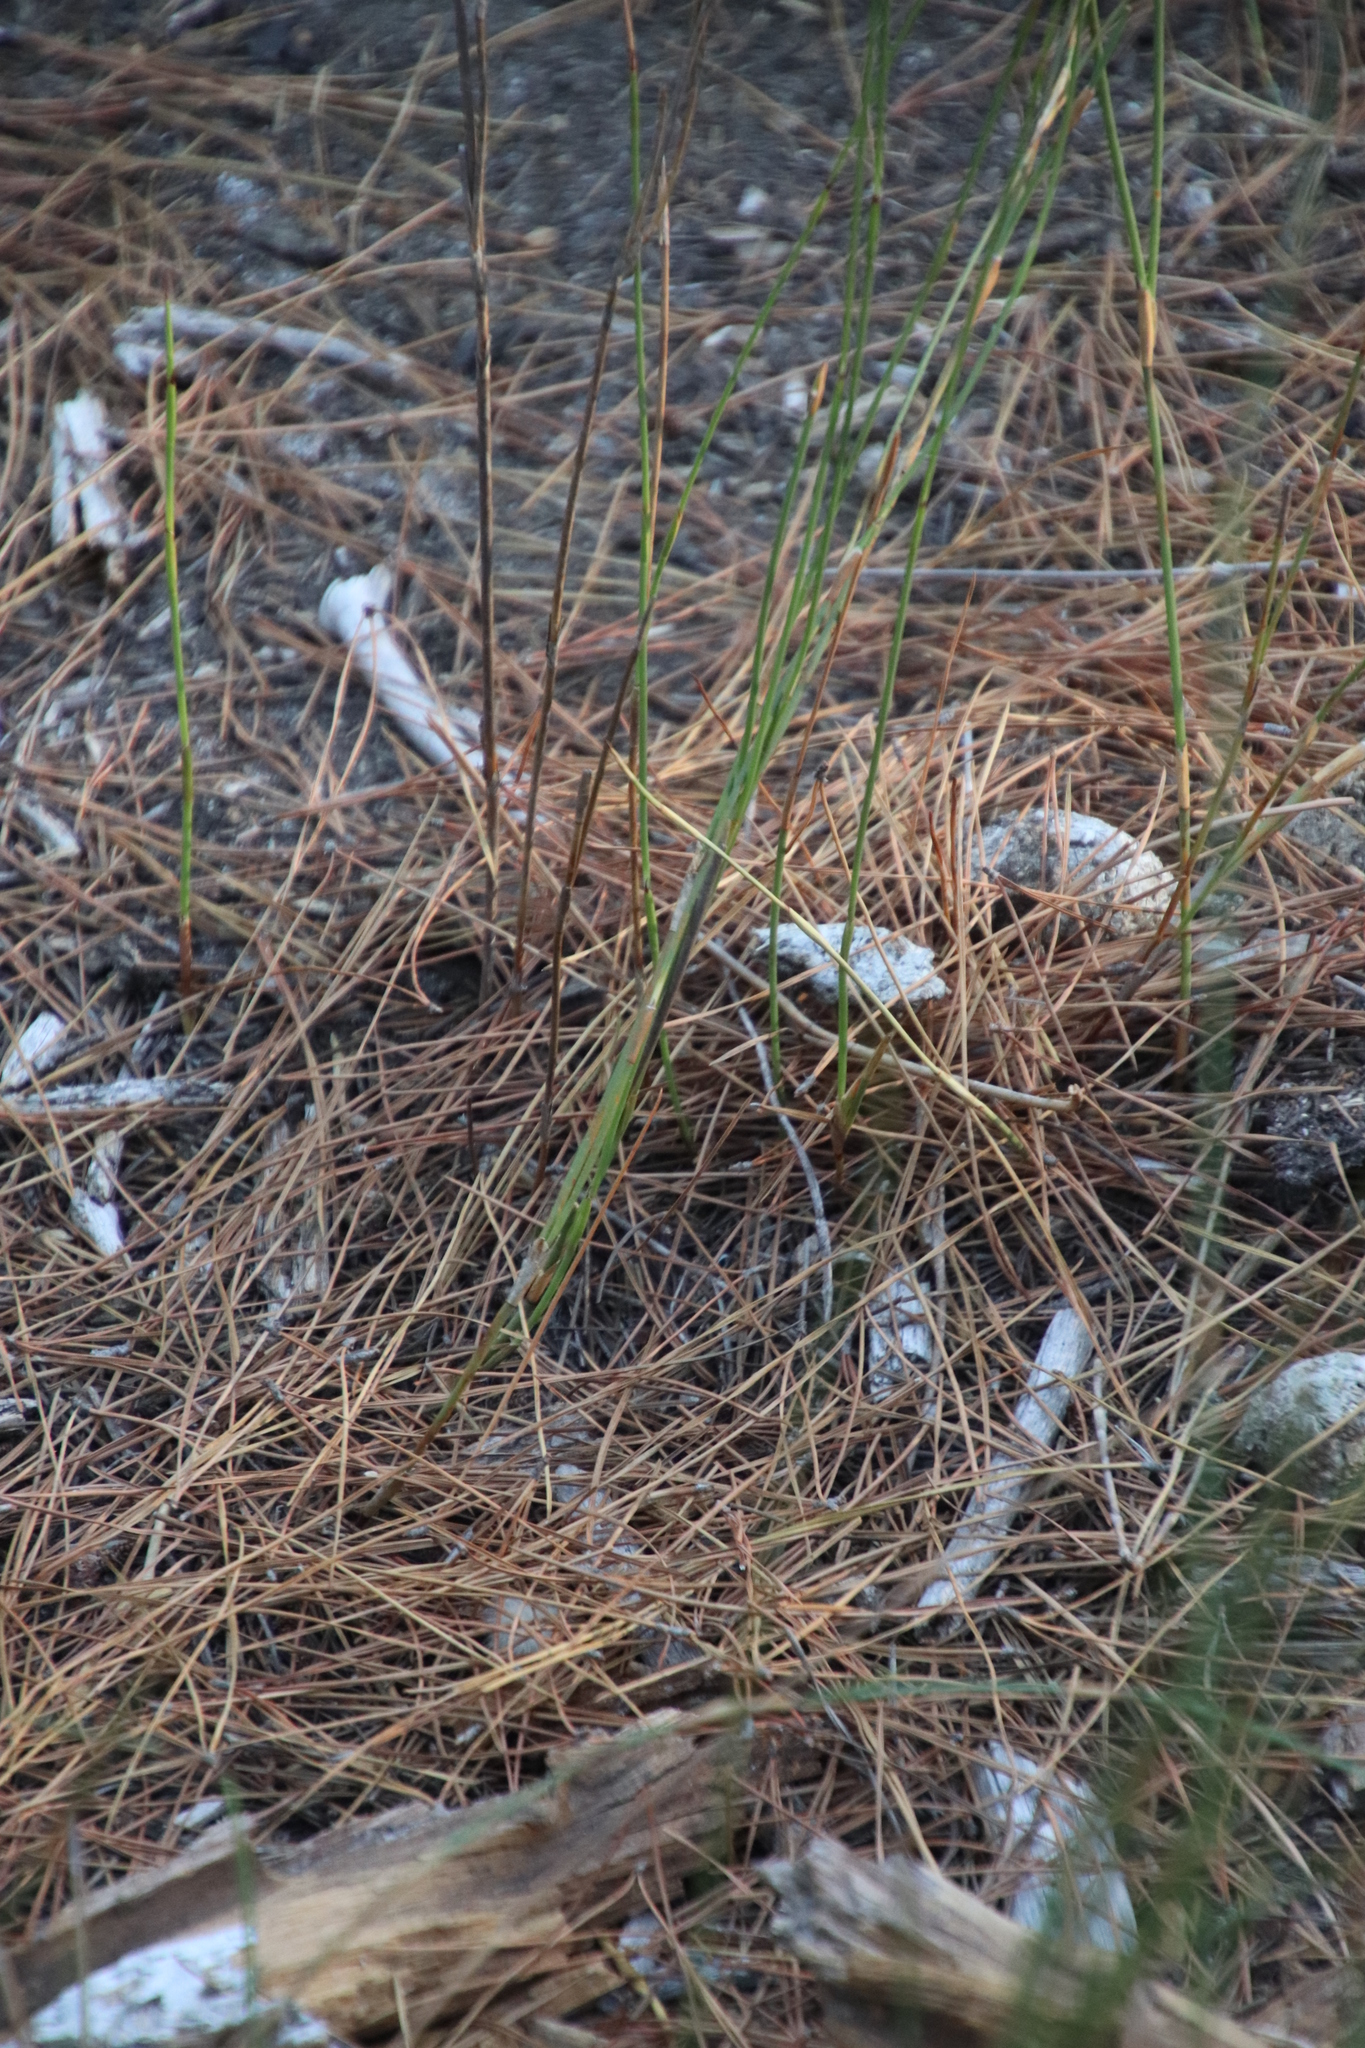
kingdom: Plantae
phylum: Tracheophyta
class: Liliopsida
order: Poales
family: Restionaceae
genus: Willdenowia
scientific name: Willdenowia sulcata
